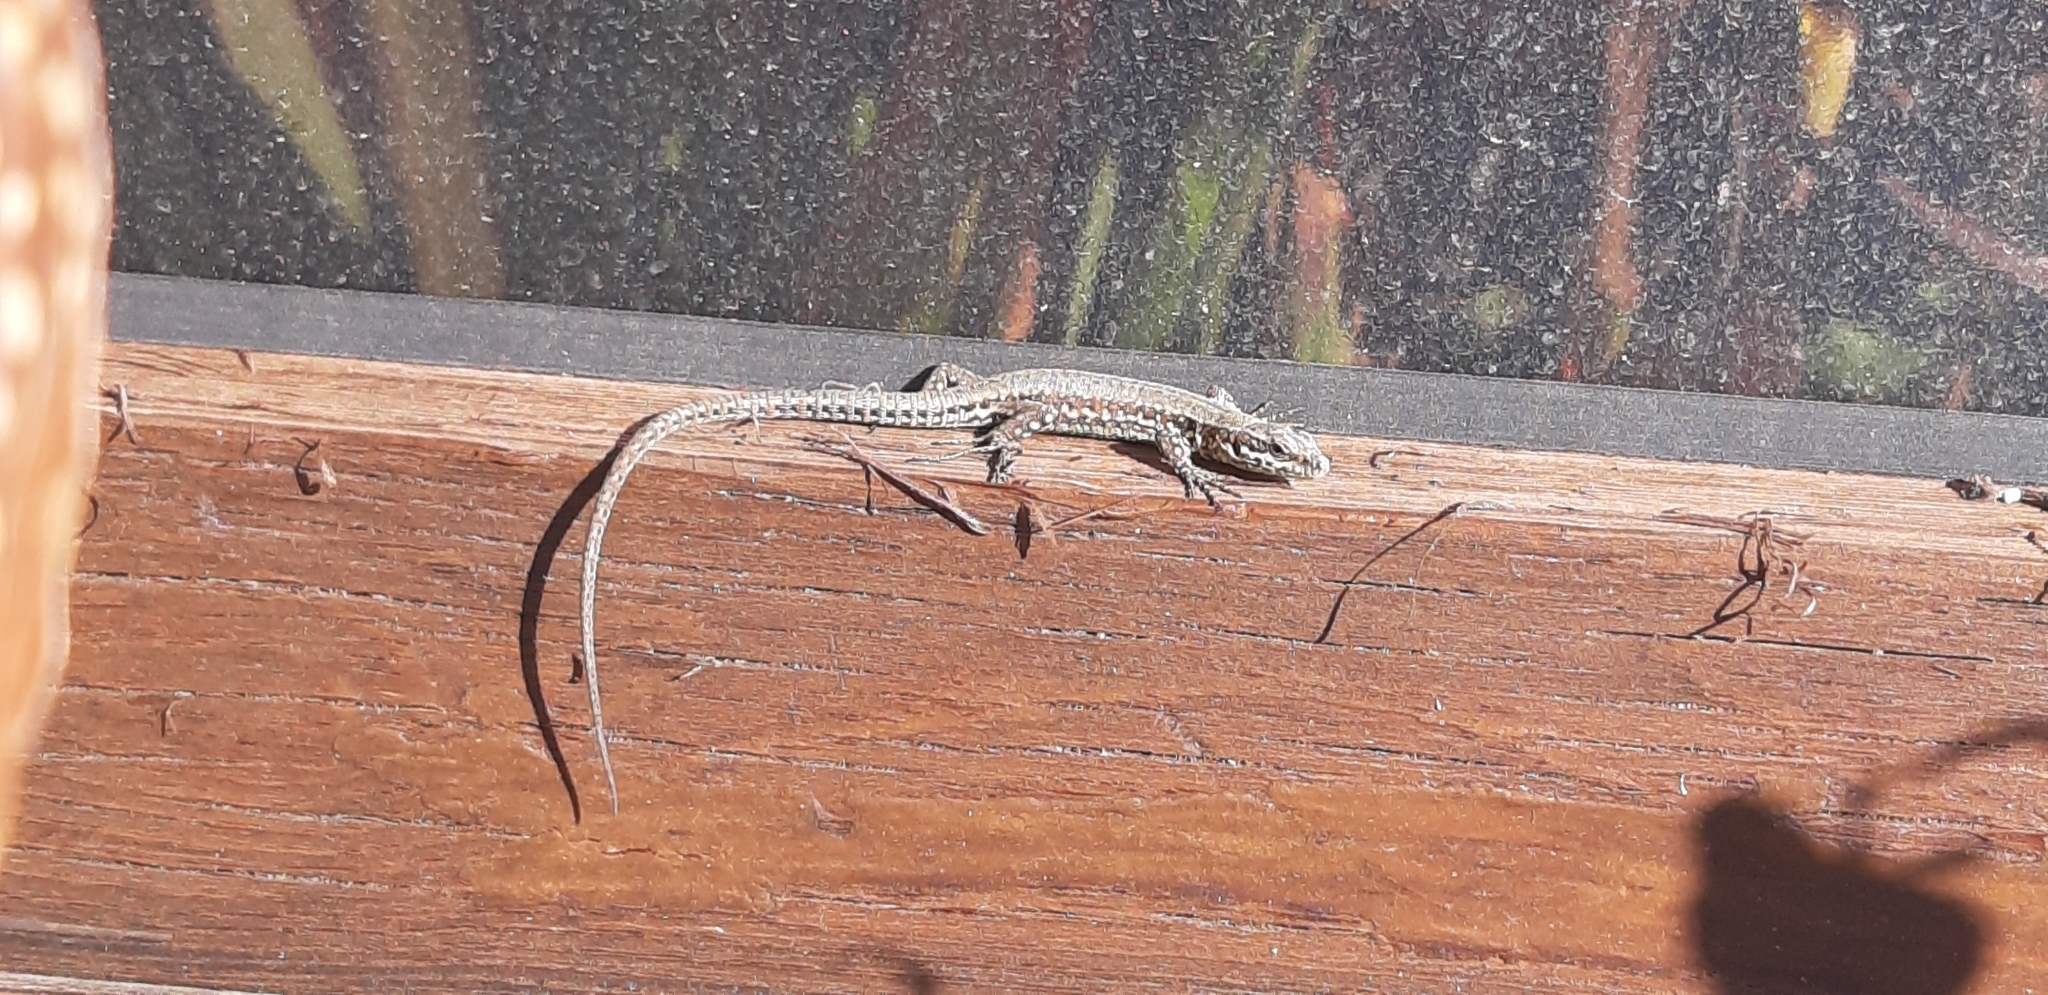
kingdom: Animalia
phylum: Chordata
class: Squamata
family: Lacertidae
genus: Podarcis
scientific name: Podarcis muralis
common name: Common wall lizard
